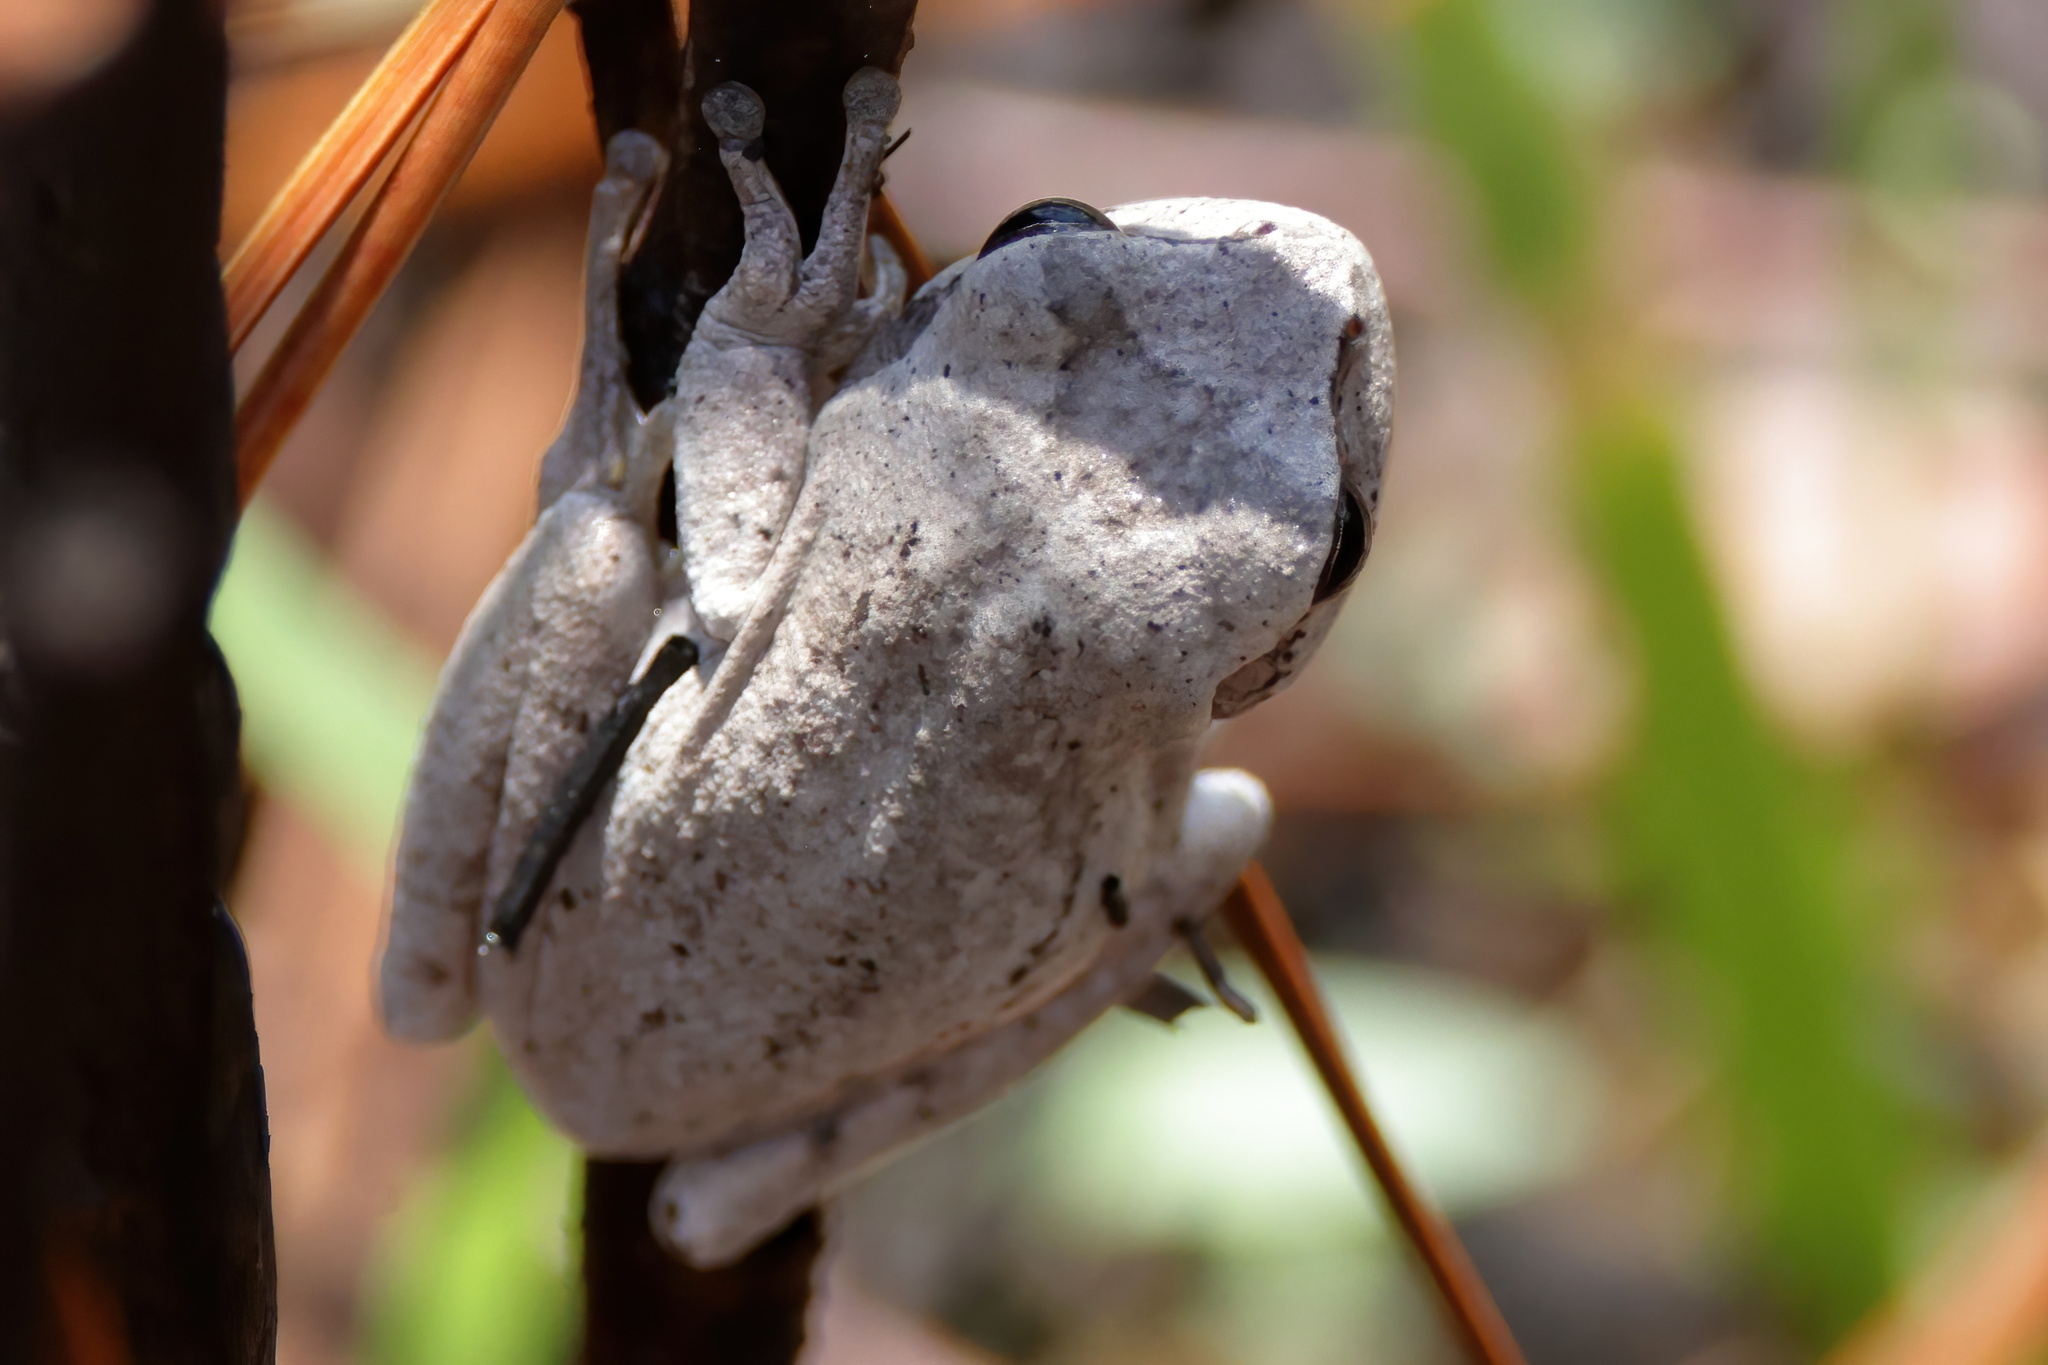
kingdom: Animalia
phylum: Chordata
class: Amphibia
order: Anura
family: Hylidae
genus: Hyla
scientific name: Hyla femoralis
